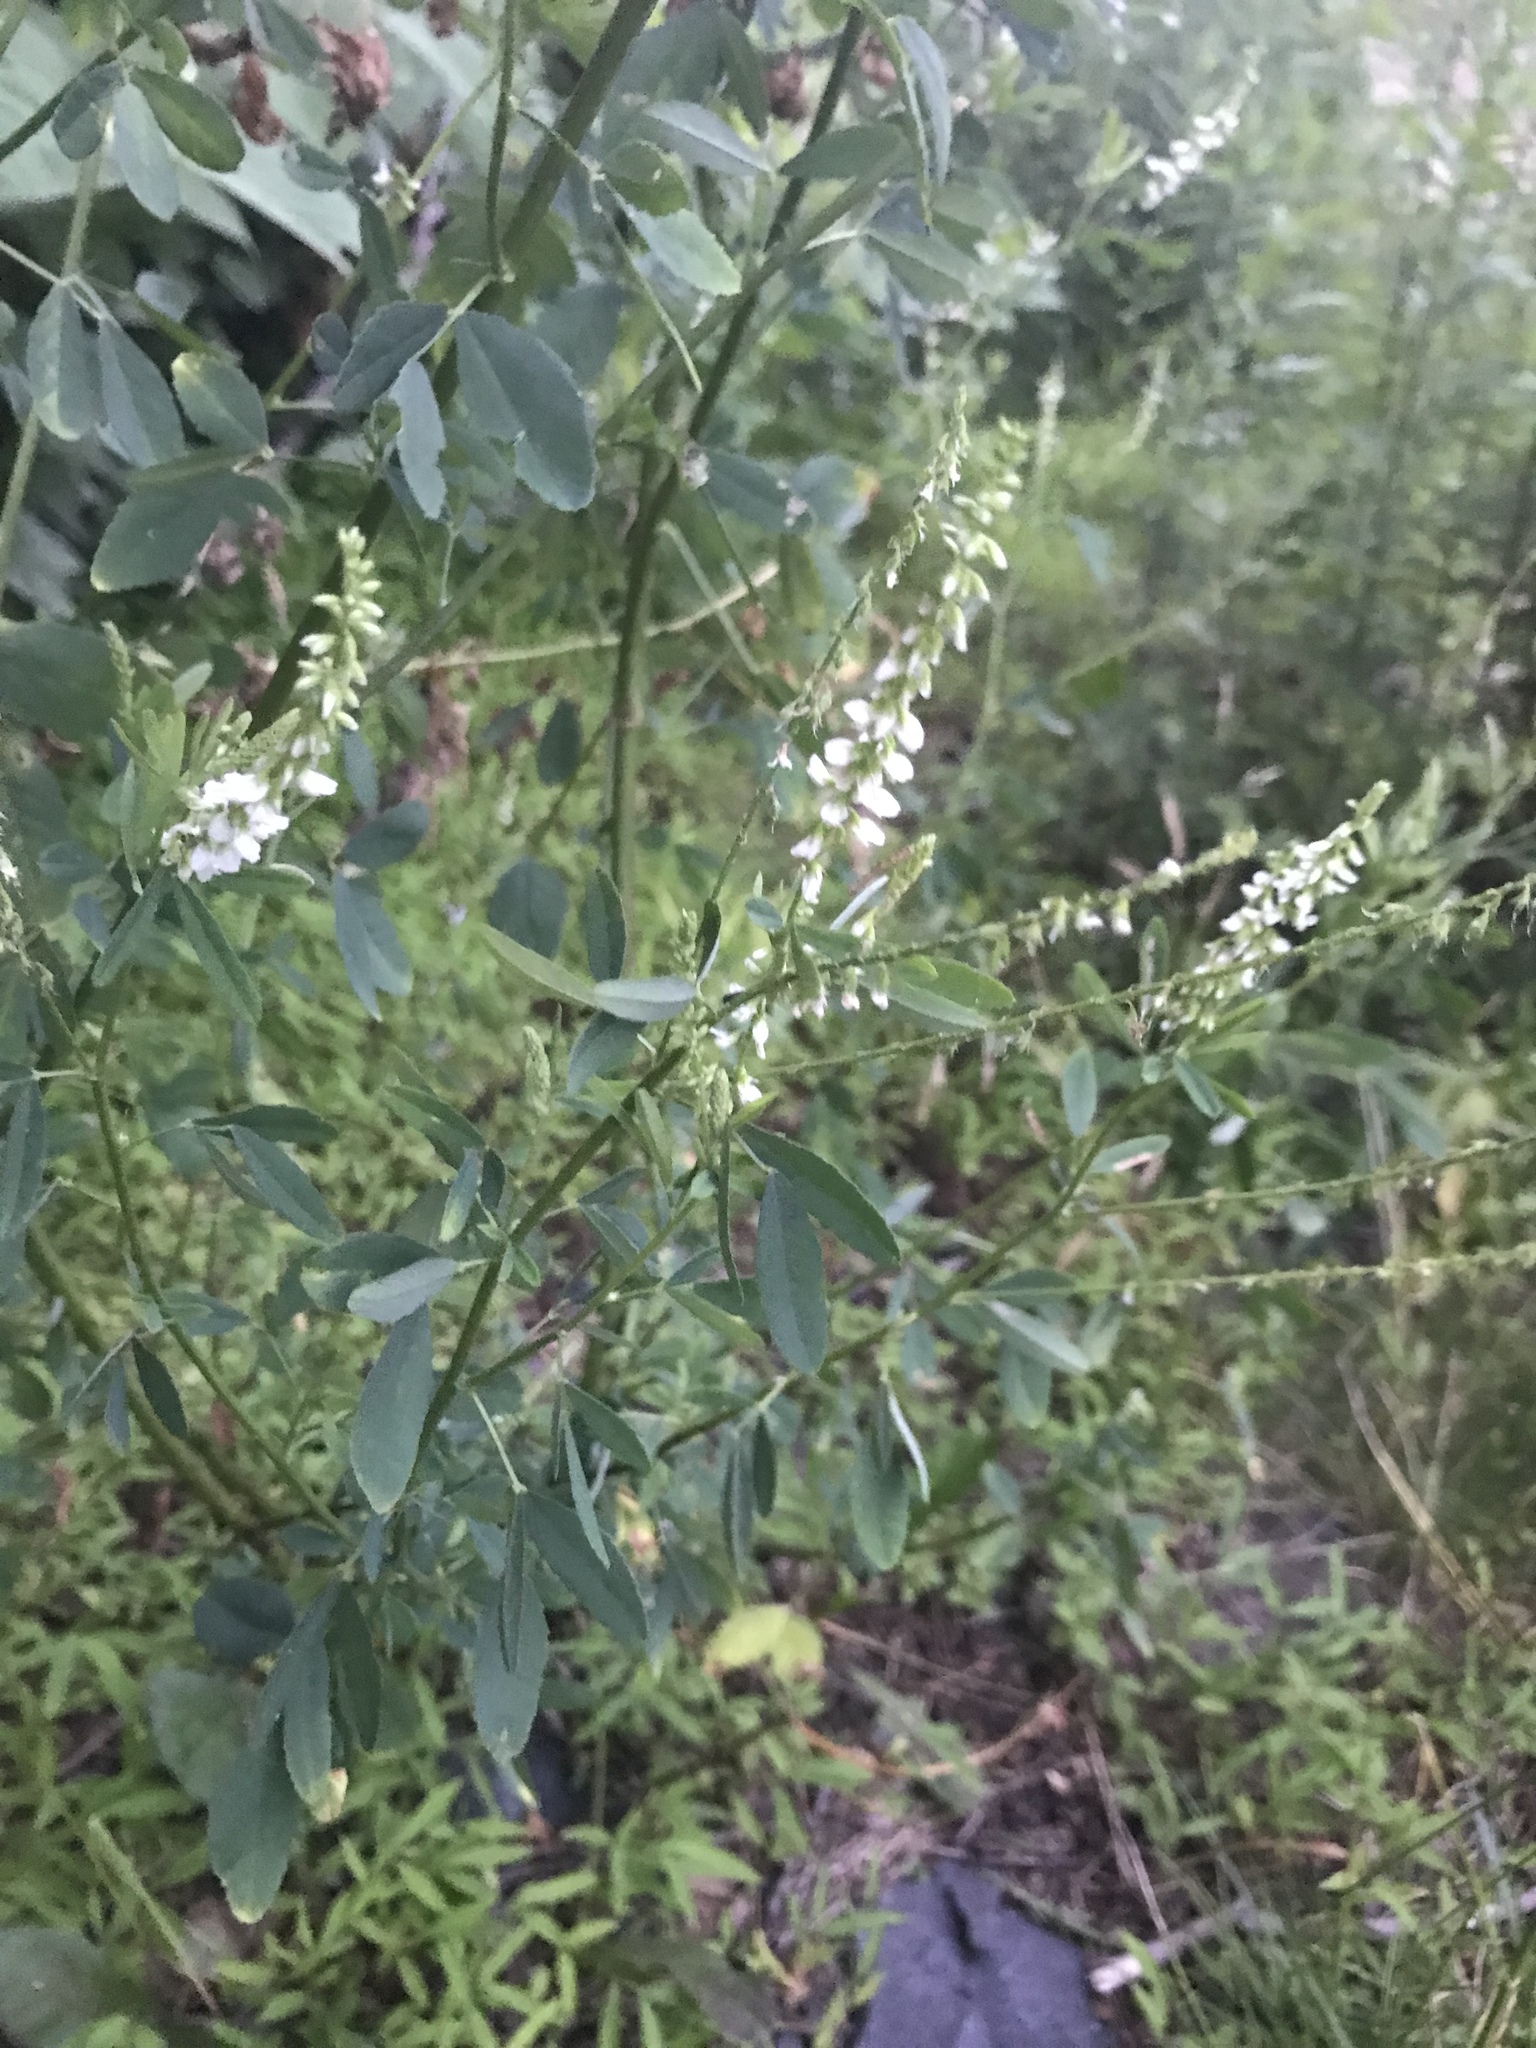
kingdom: Plantae
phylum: Tracheophyta
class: Magnoliopsida
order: Fabales
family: Fabaceae
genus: Melilotus
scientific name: Melilotus albus
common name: White melilot
